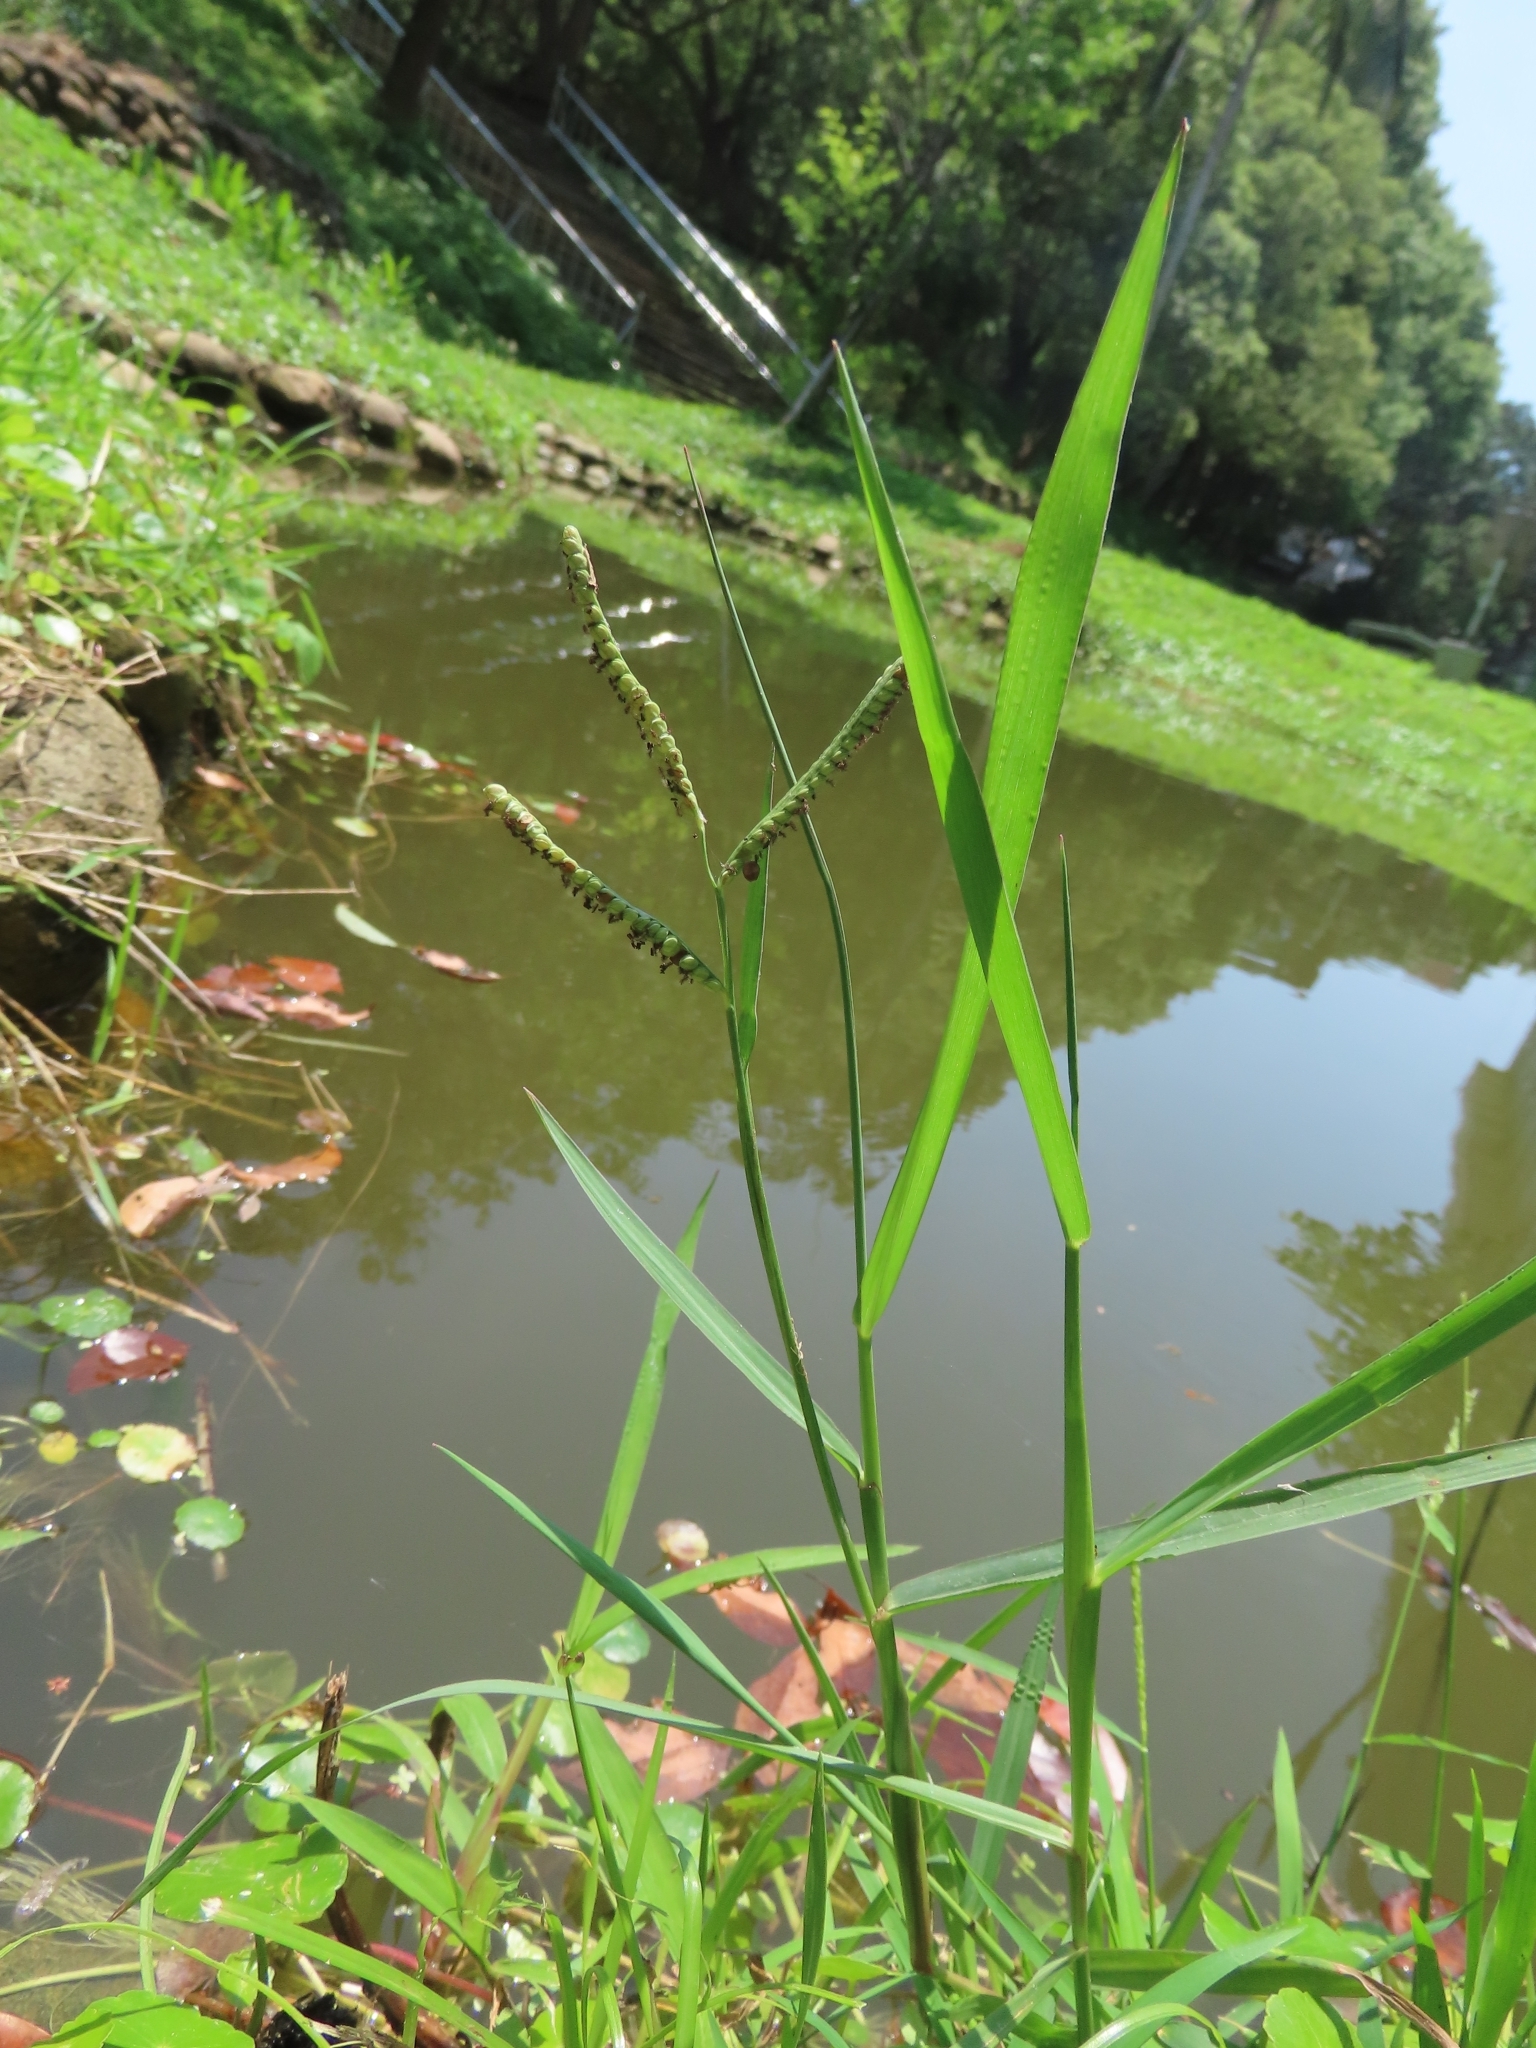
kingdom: Plantae
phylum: Tracheophyta
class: Liliopsida
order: Poales
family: Poaceae
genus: Paspalum
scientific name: Paspalum orbiculare
